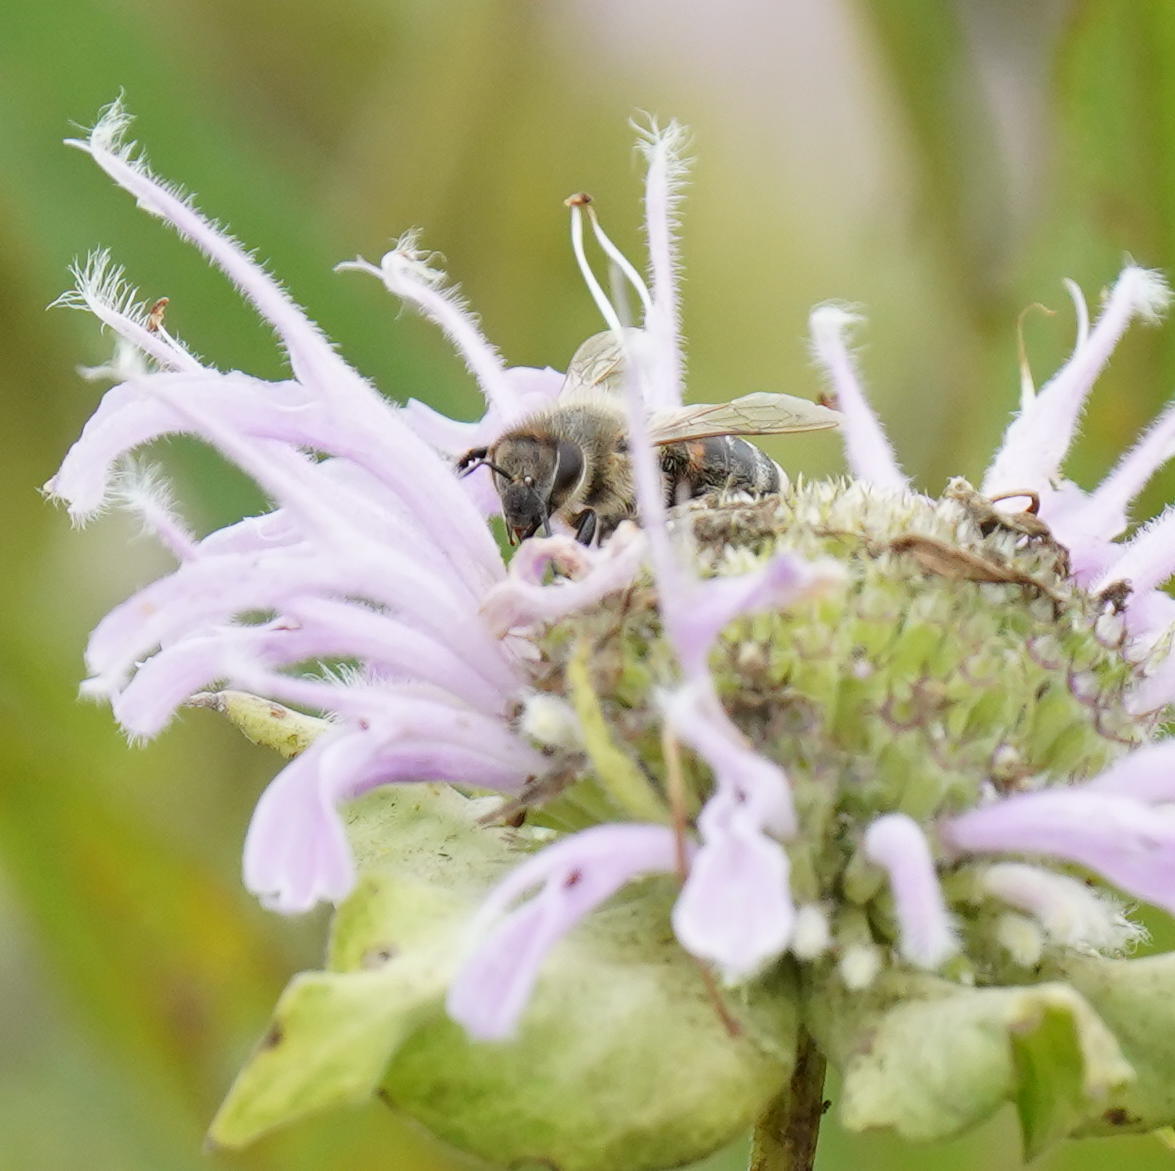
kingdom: Animalia
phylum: Arthropoda
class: Insecta
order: Hymenoptera
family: Apidae
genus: Apis
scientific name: Apis mellifera
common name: Honey bee
